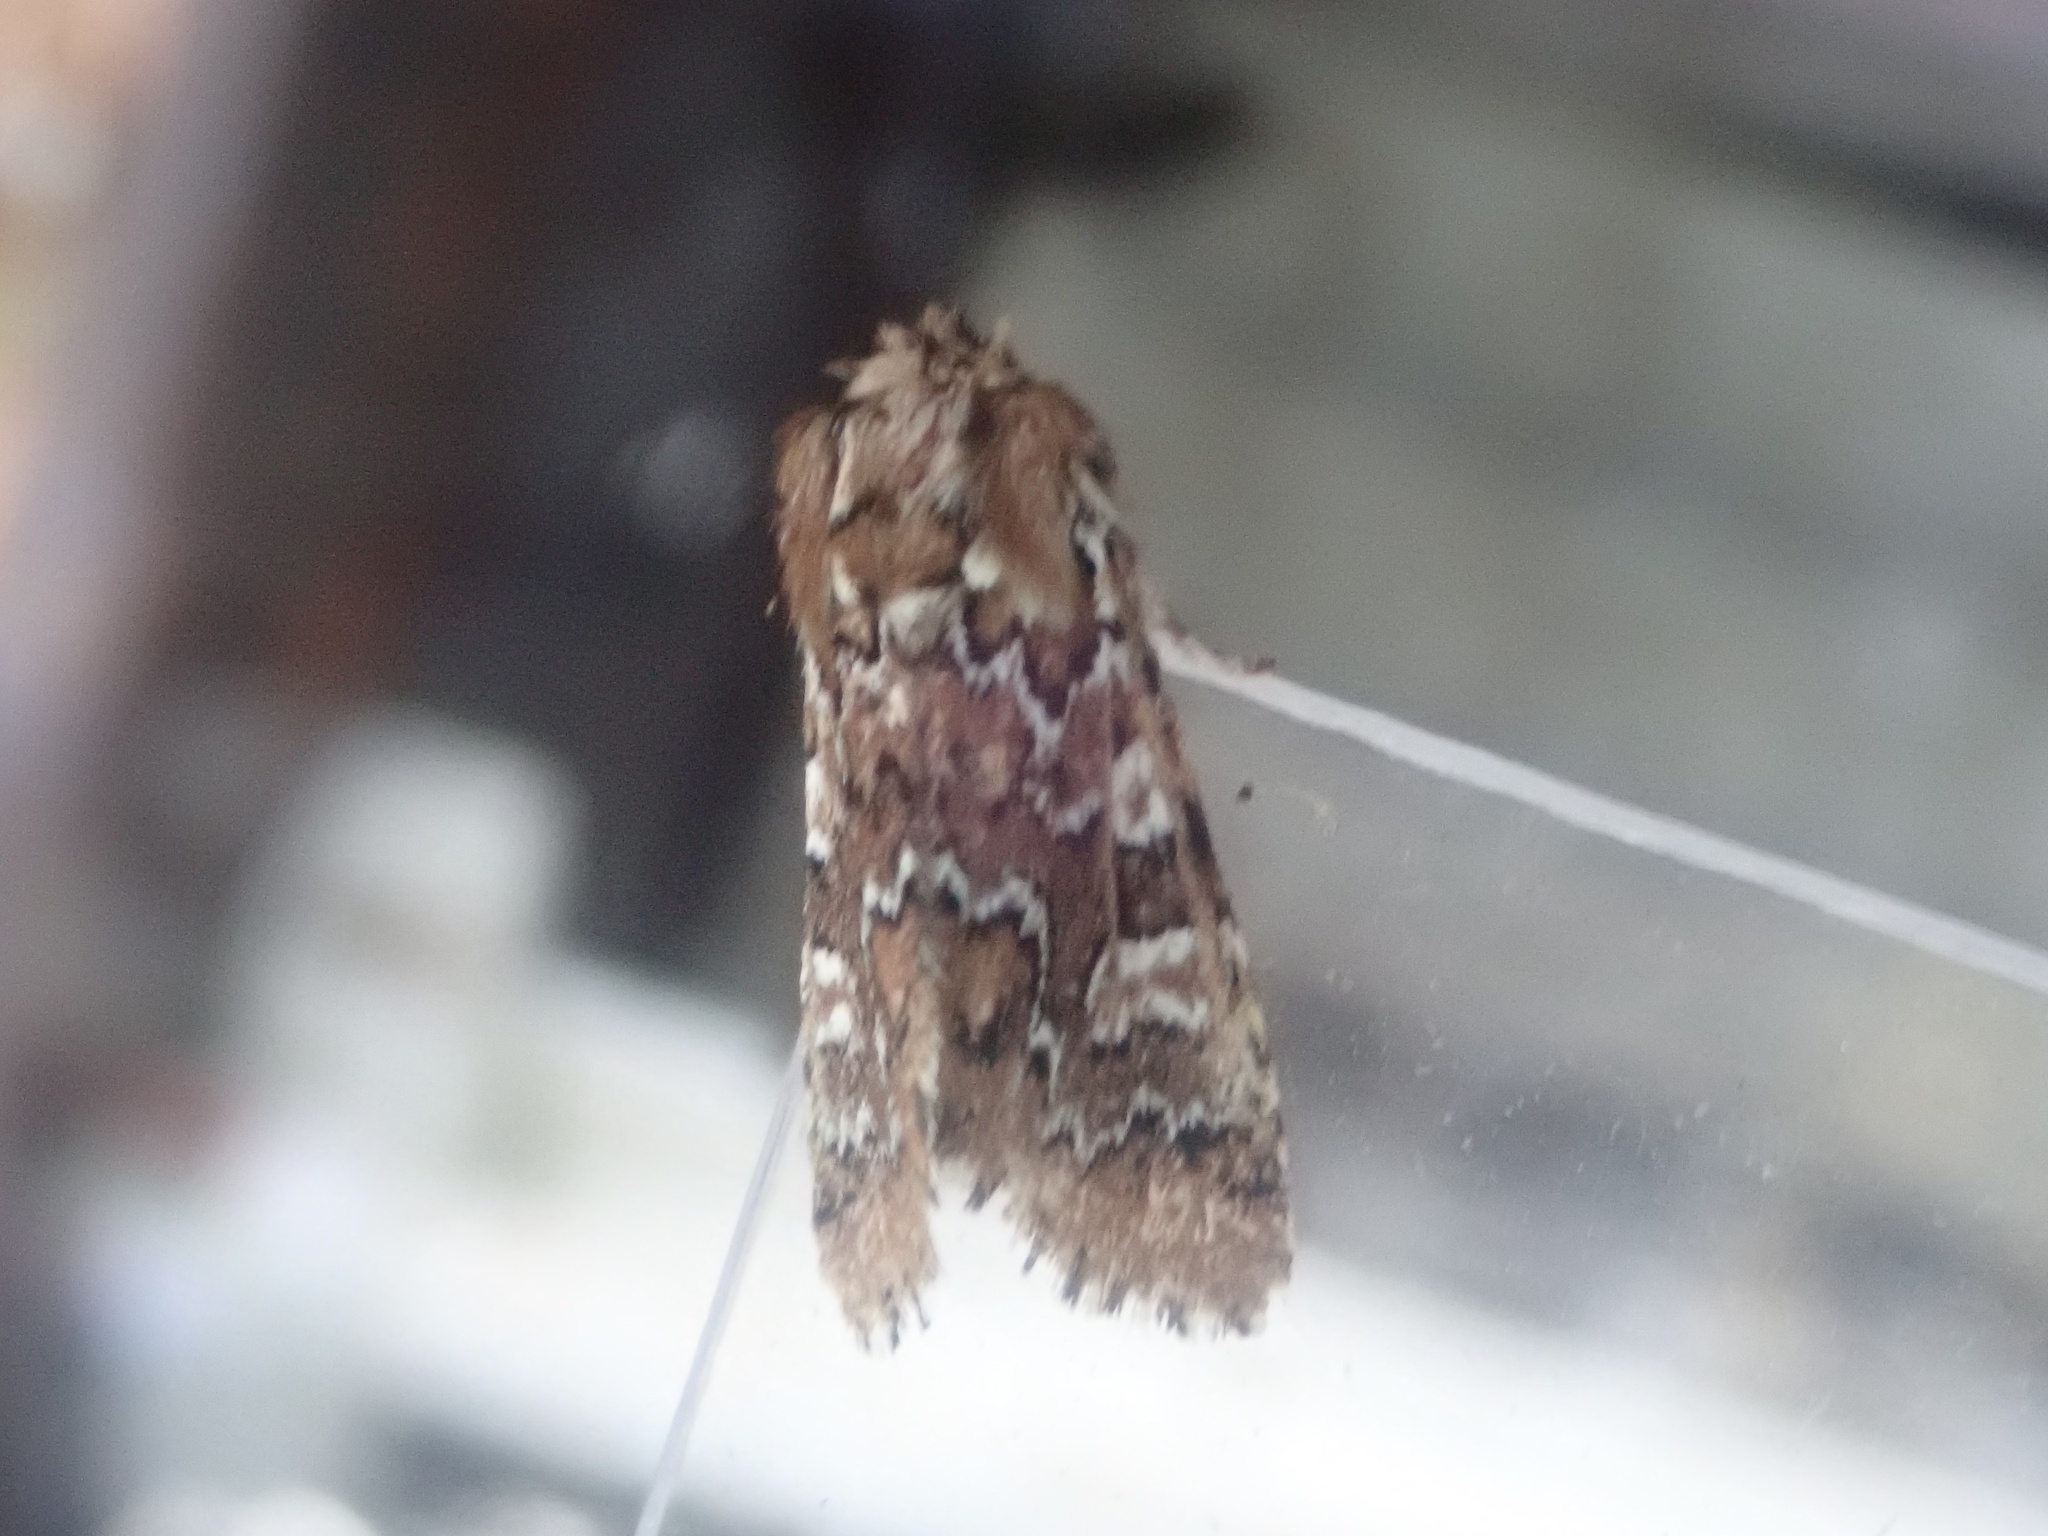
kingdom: Animalia
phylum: Arthropoda
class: Insecta
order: Lepidoptera
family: Noctuidae
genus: Feralia
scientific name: Feralia jocosa
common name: Joker
